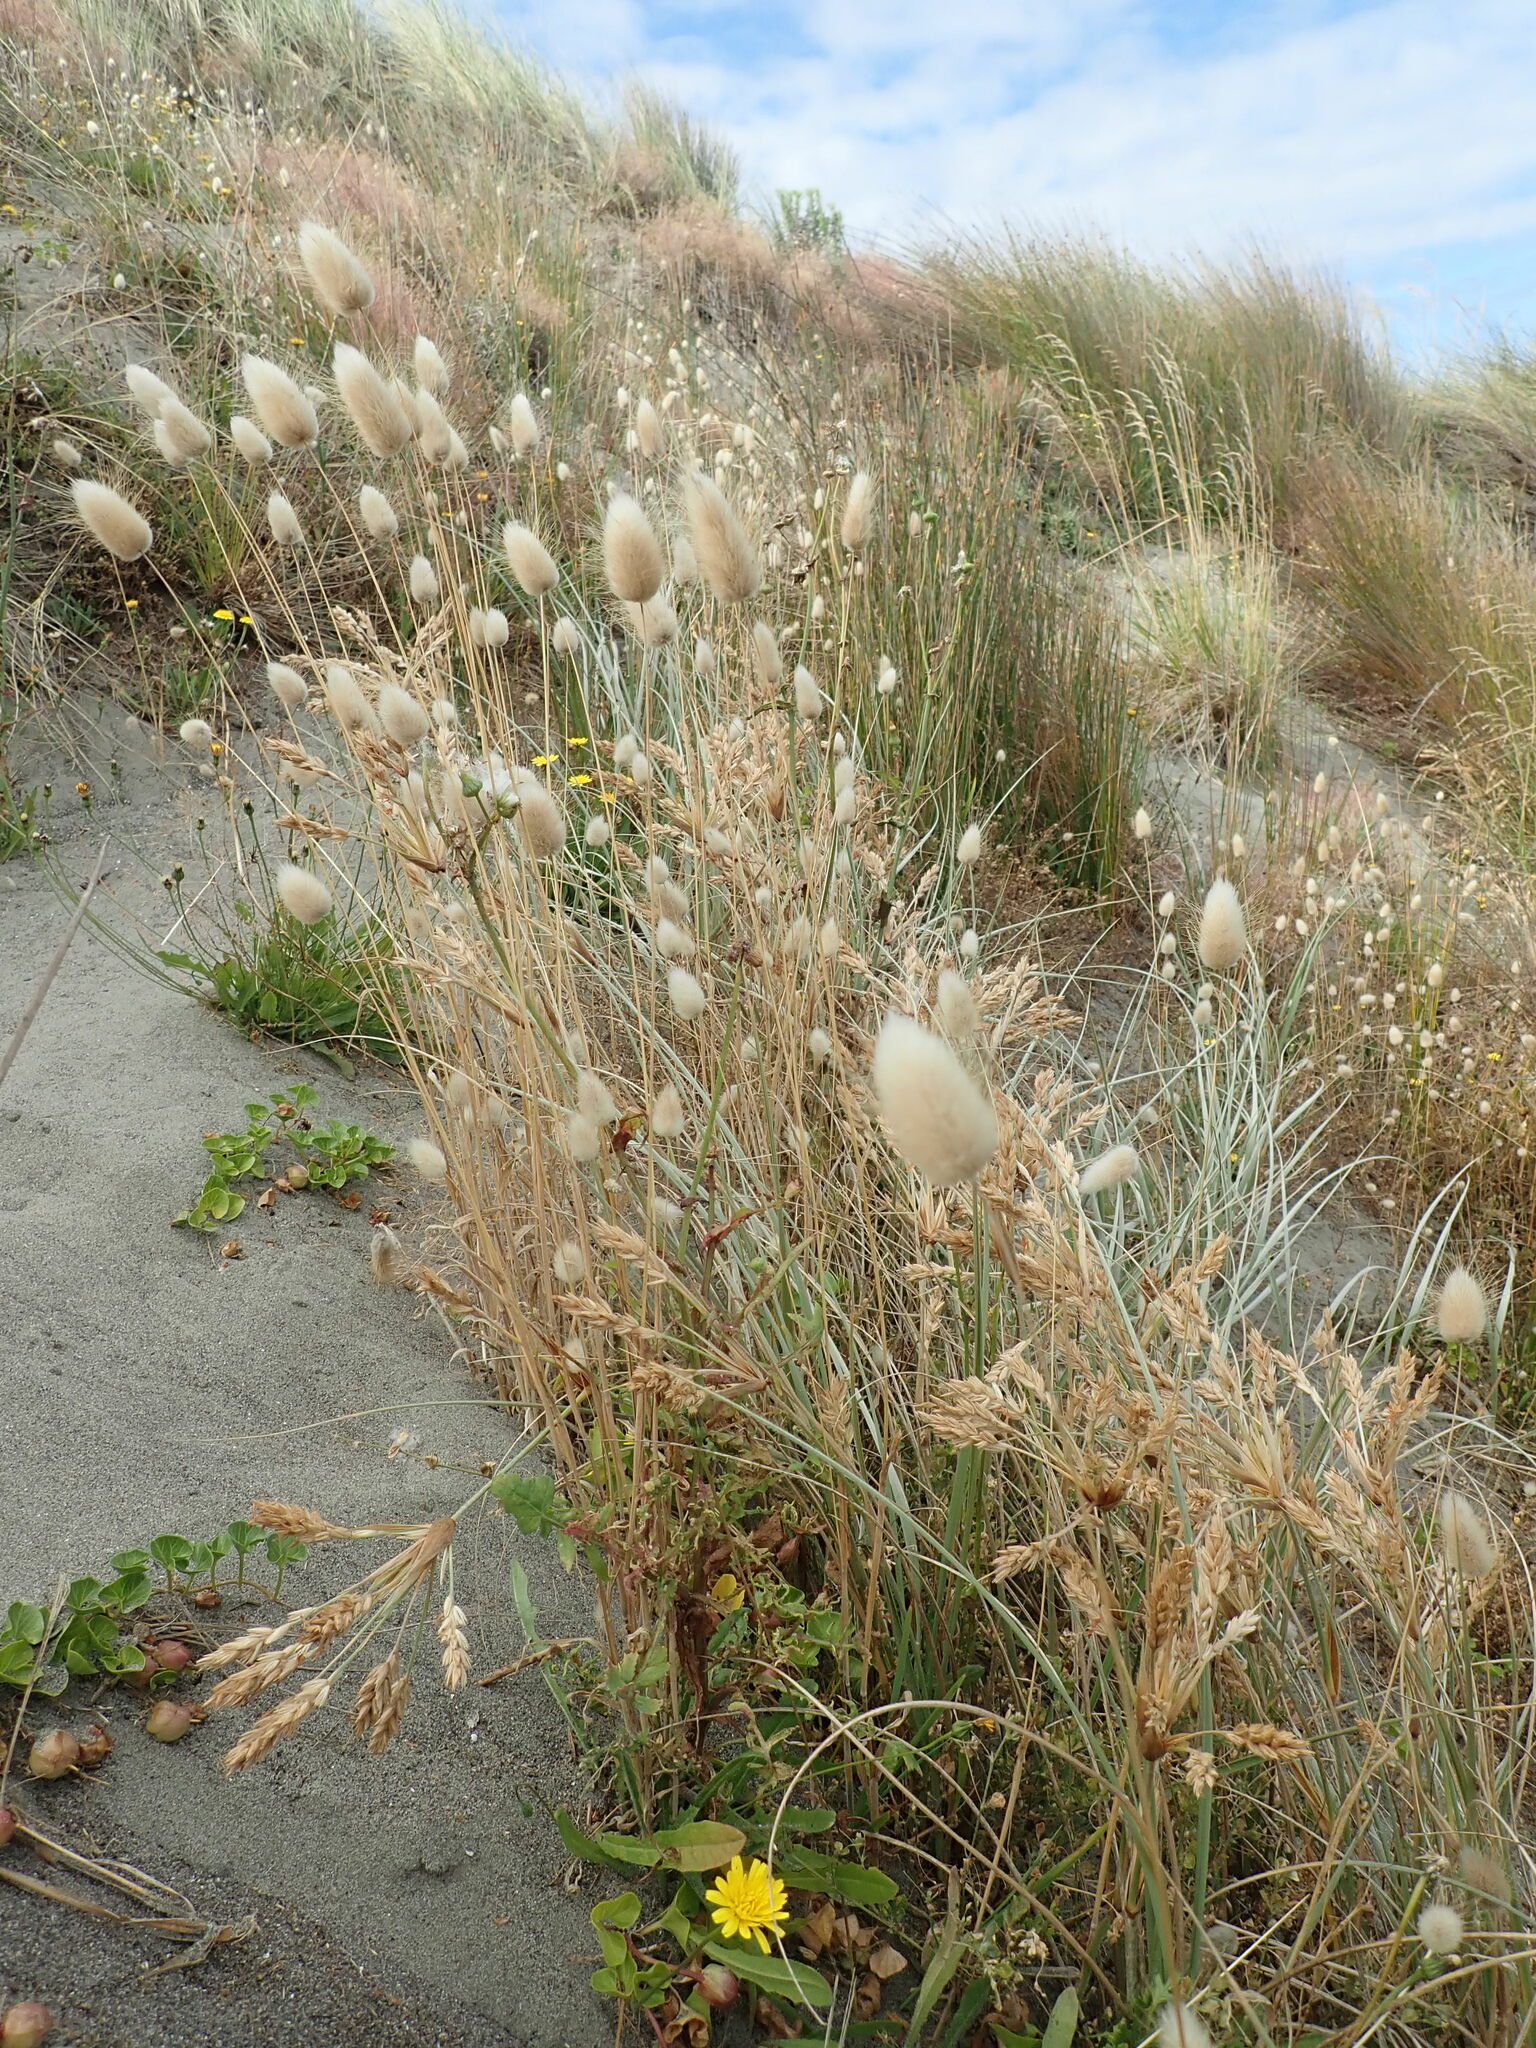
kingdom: Plantae
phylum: Tracheophyta
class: Liliopsida
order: Poales
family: Poaceae
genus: Lagurus
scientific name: Lagurus ovatus
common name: Hare's-tail
